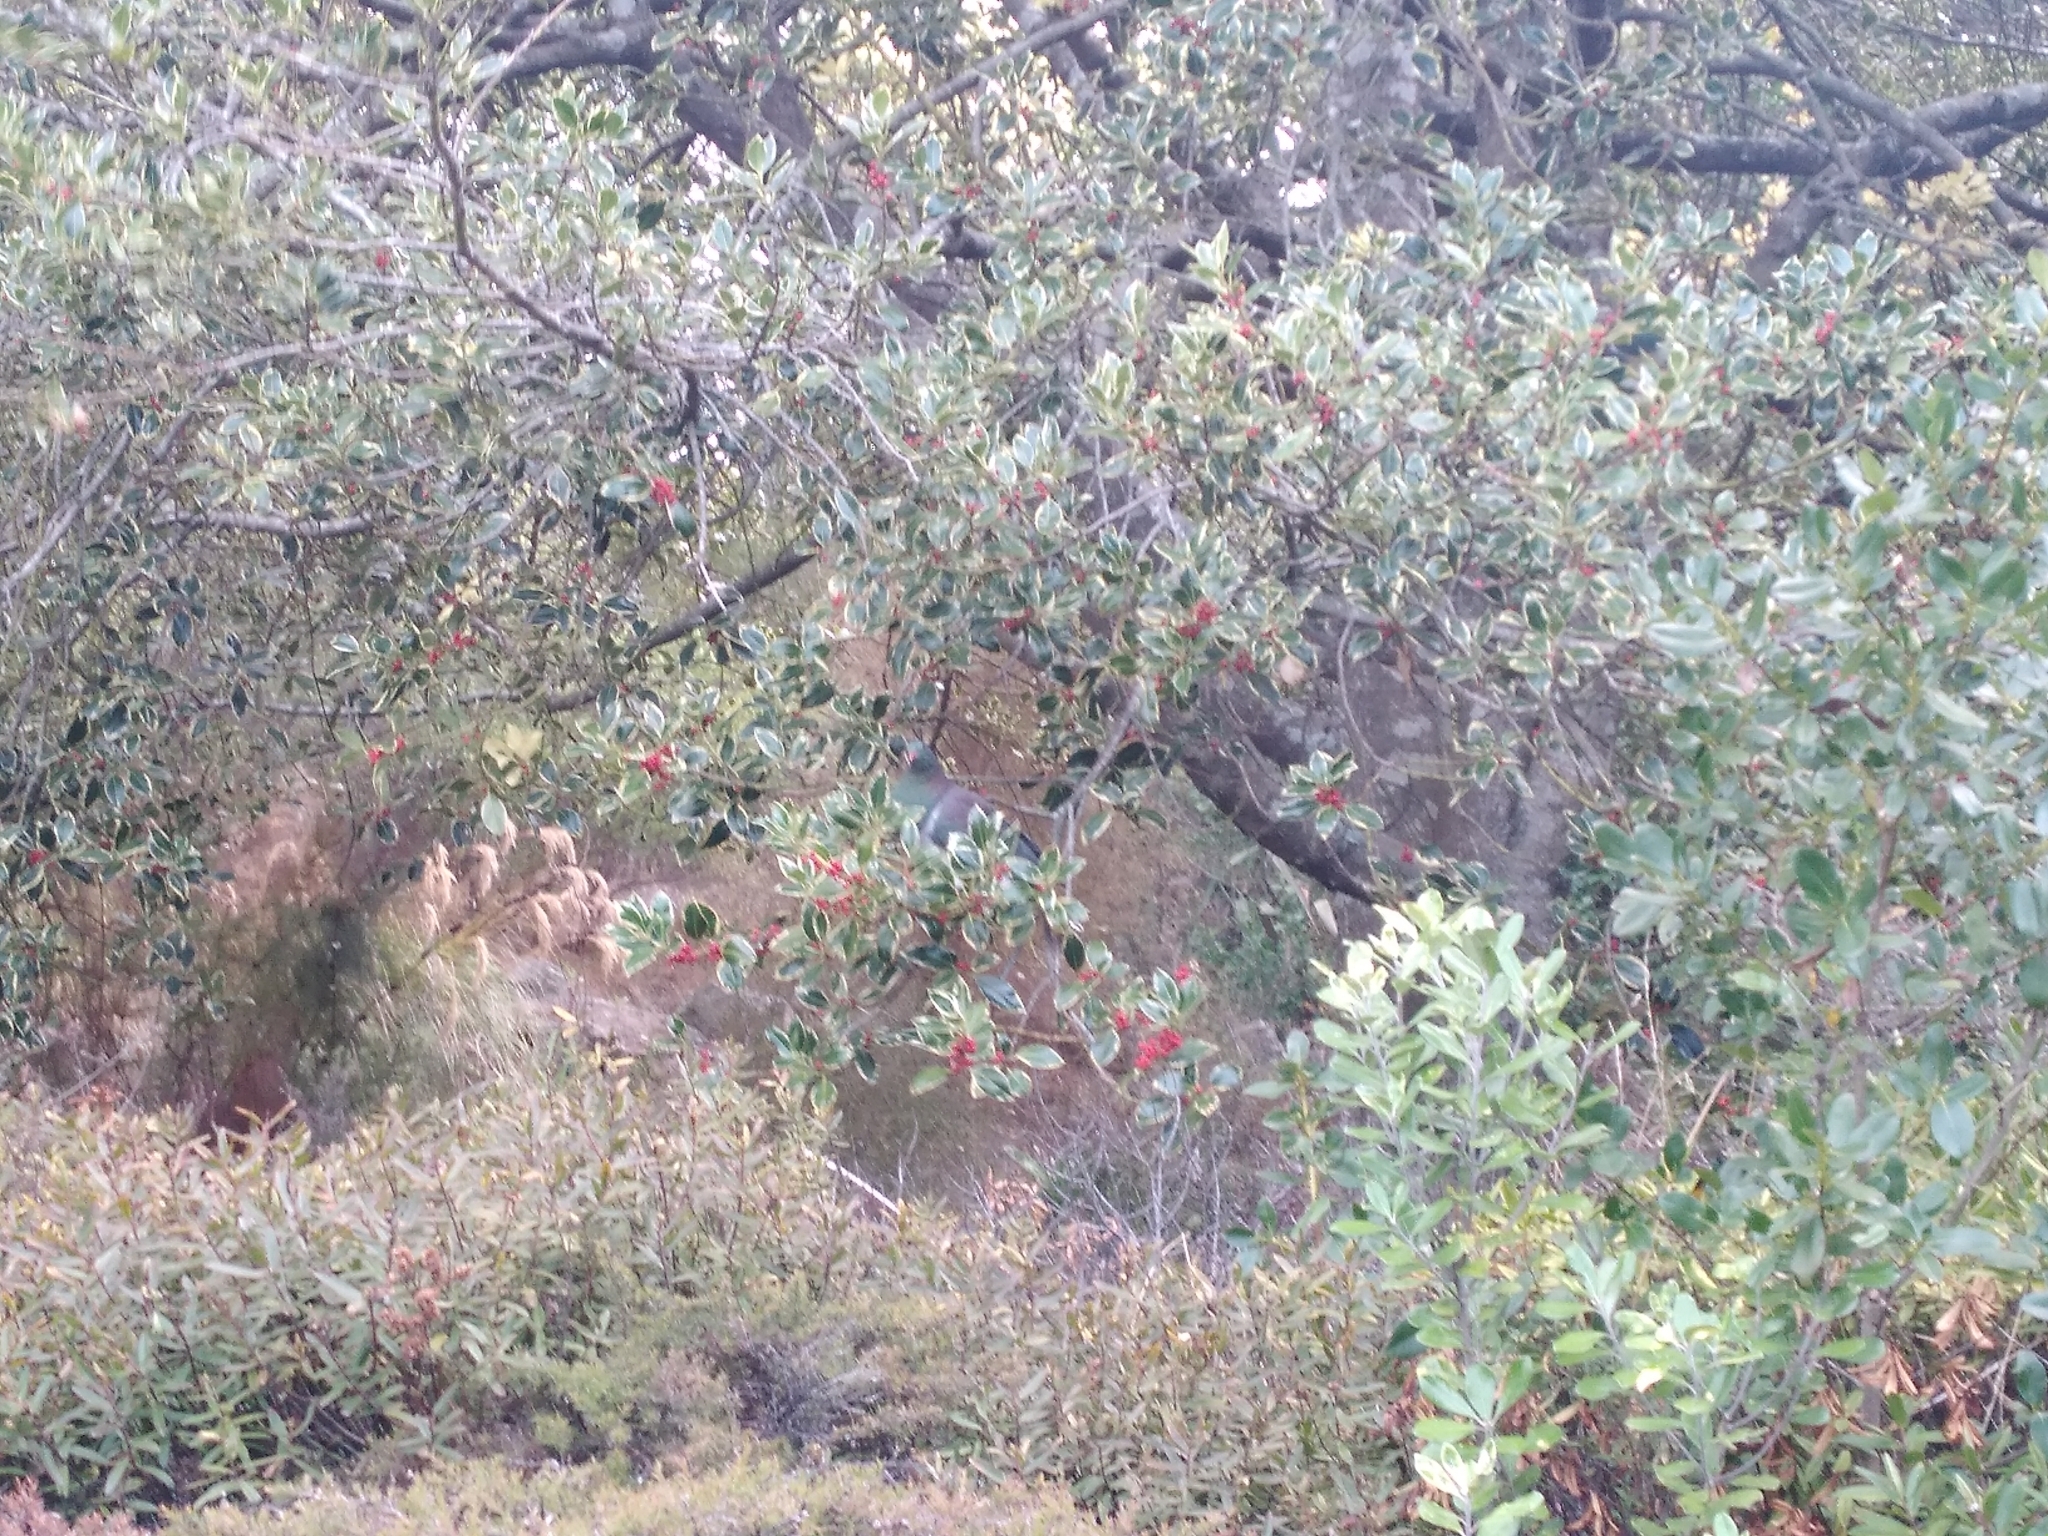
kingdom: Animalia
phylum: Chordata
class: Aves
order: Columbiformes
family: Columbidae
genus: Hemiphaga
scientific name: Hemiphaga novaeseelandiae
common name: New zealand pigeon
